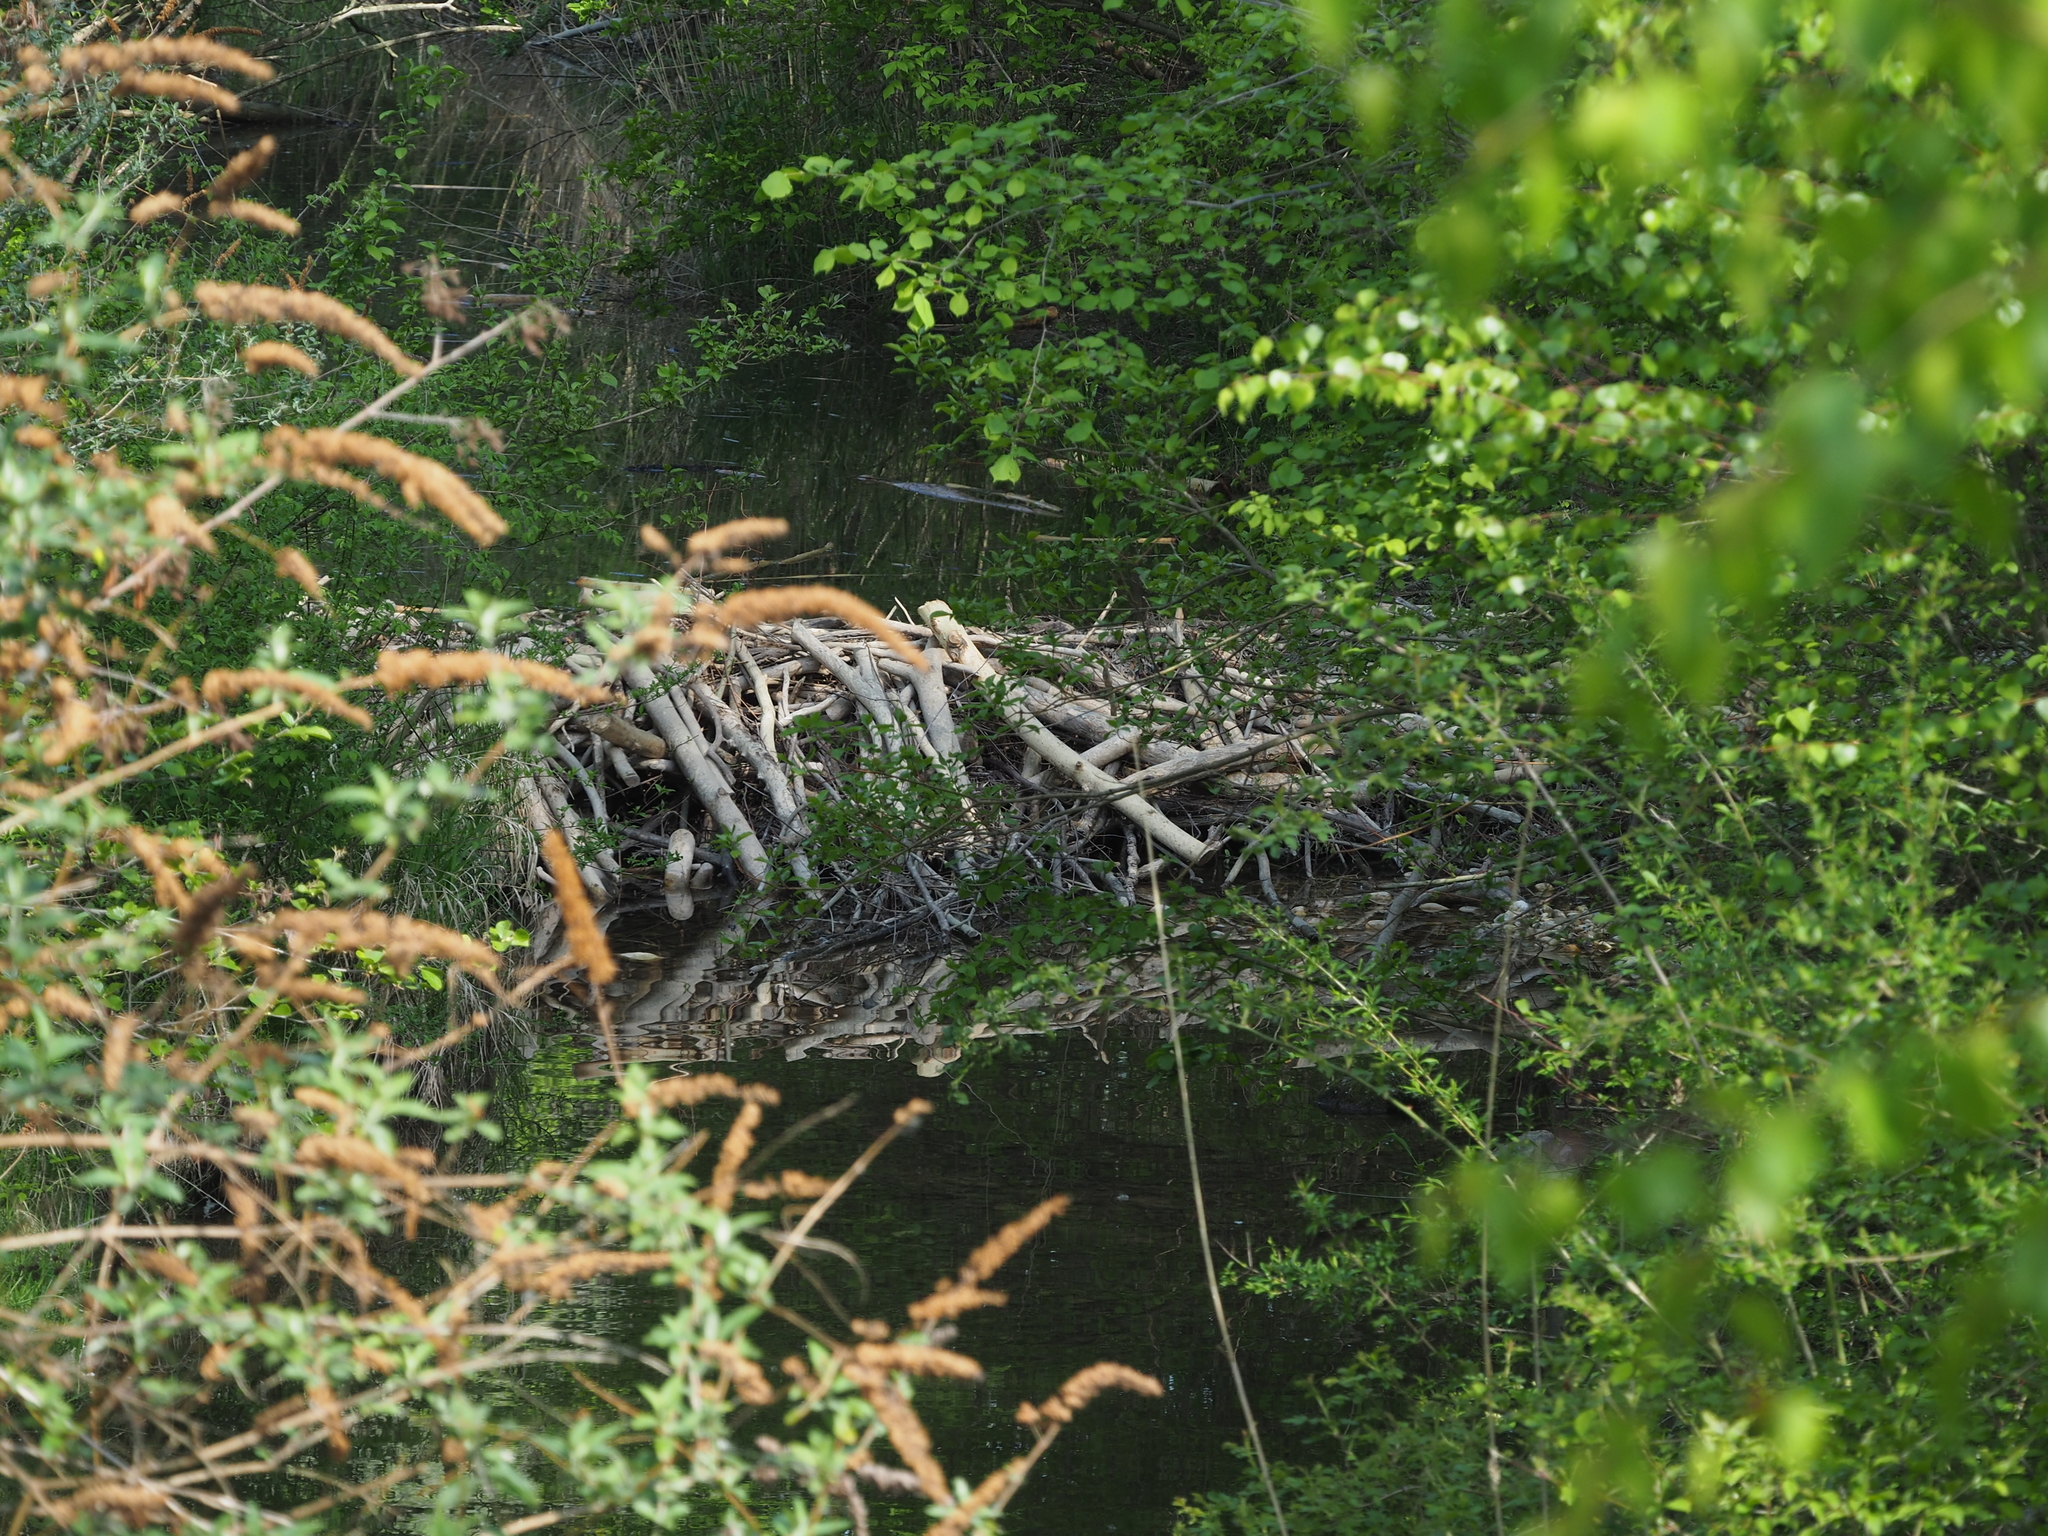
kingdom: Animalia
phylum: Chordata
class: Mammalia
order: Rodentia
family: Castoridae
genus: Castor
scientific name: Castor fiber
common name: Eurasian beaver
